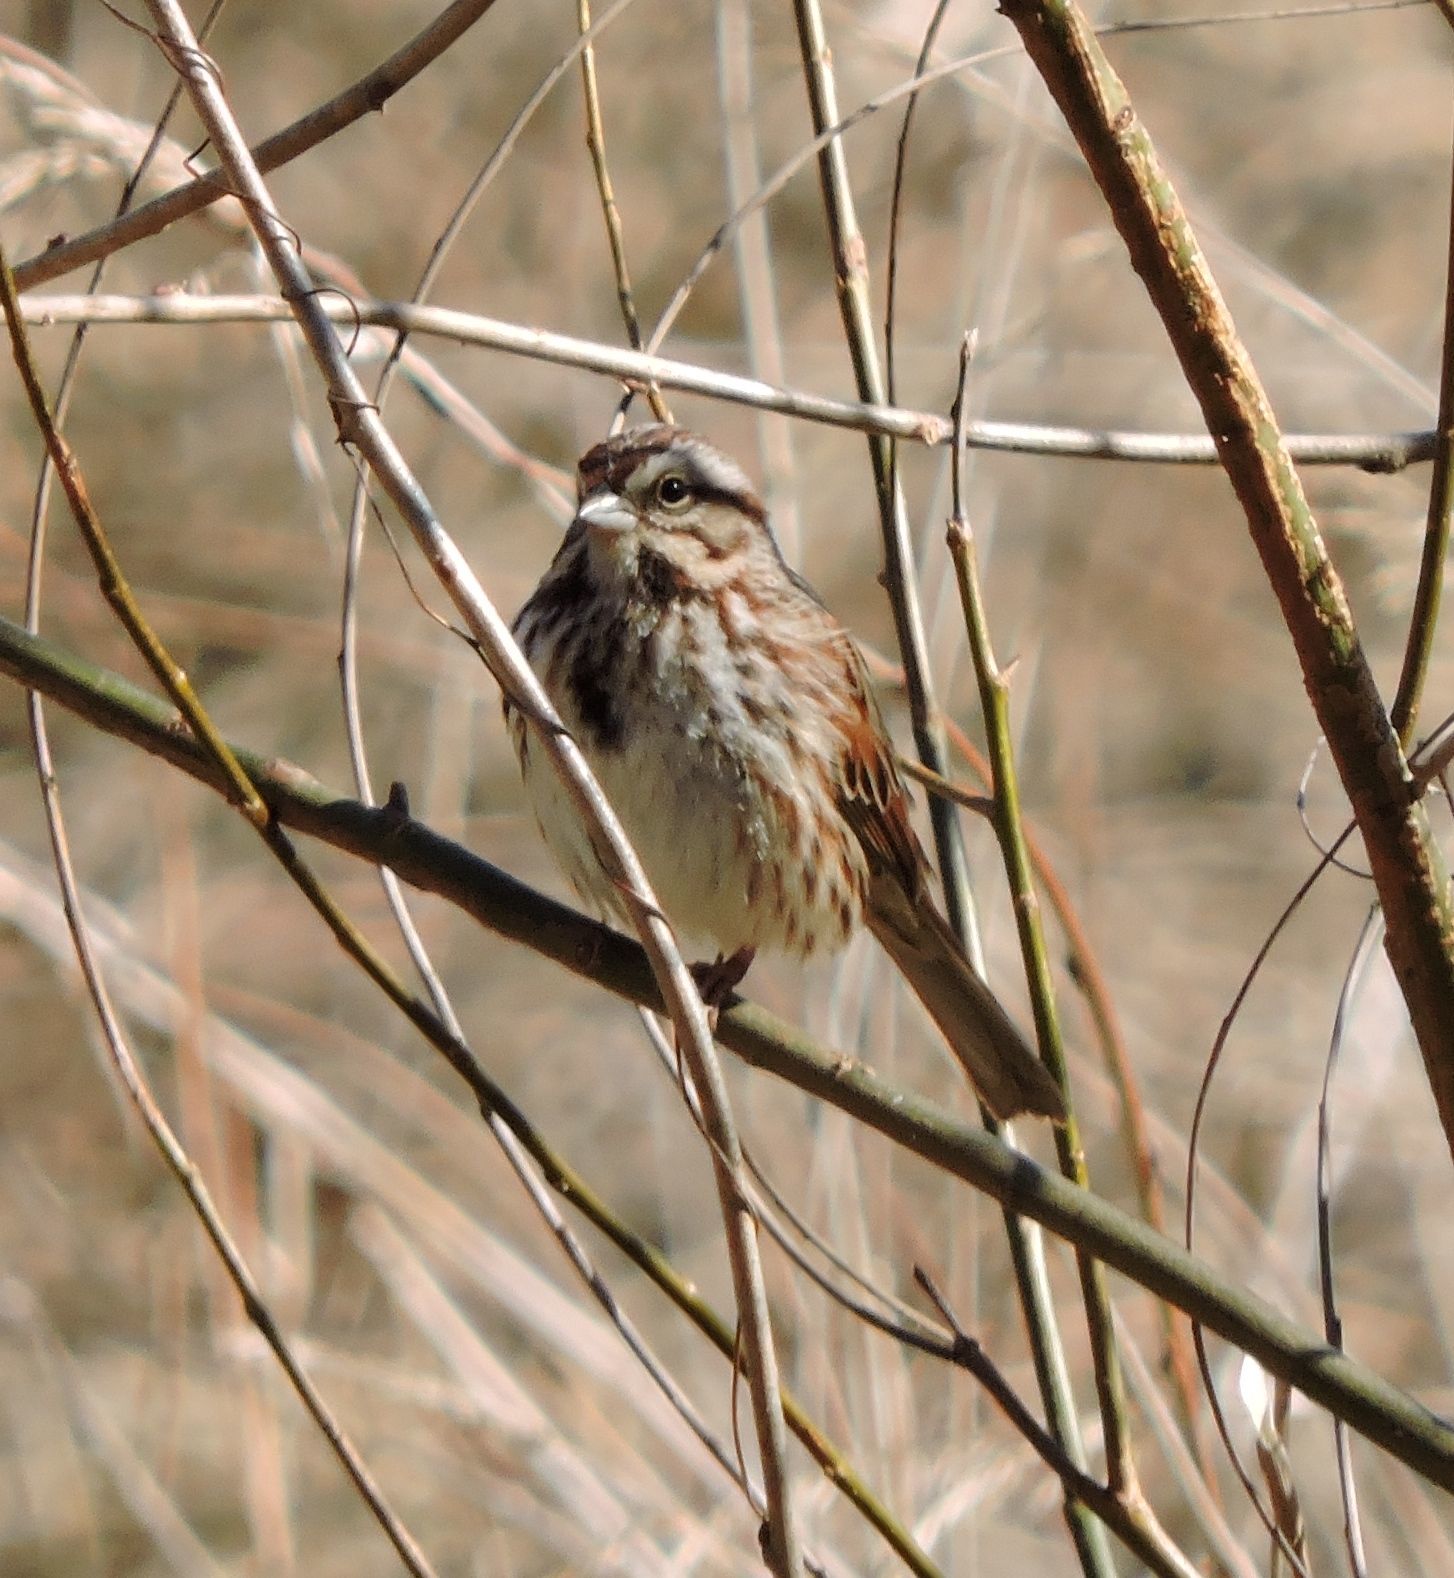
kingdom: Animalia
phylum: Chordata
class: Aves
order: Passeriformes
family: Passerellidae
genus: Melospiza
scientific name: Melospiza melodia
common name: Song sparrow
